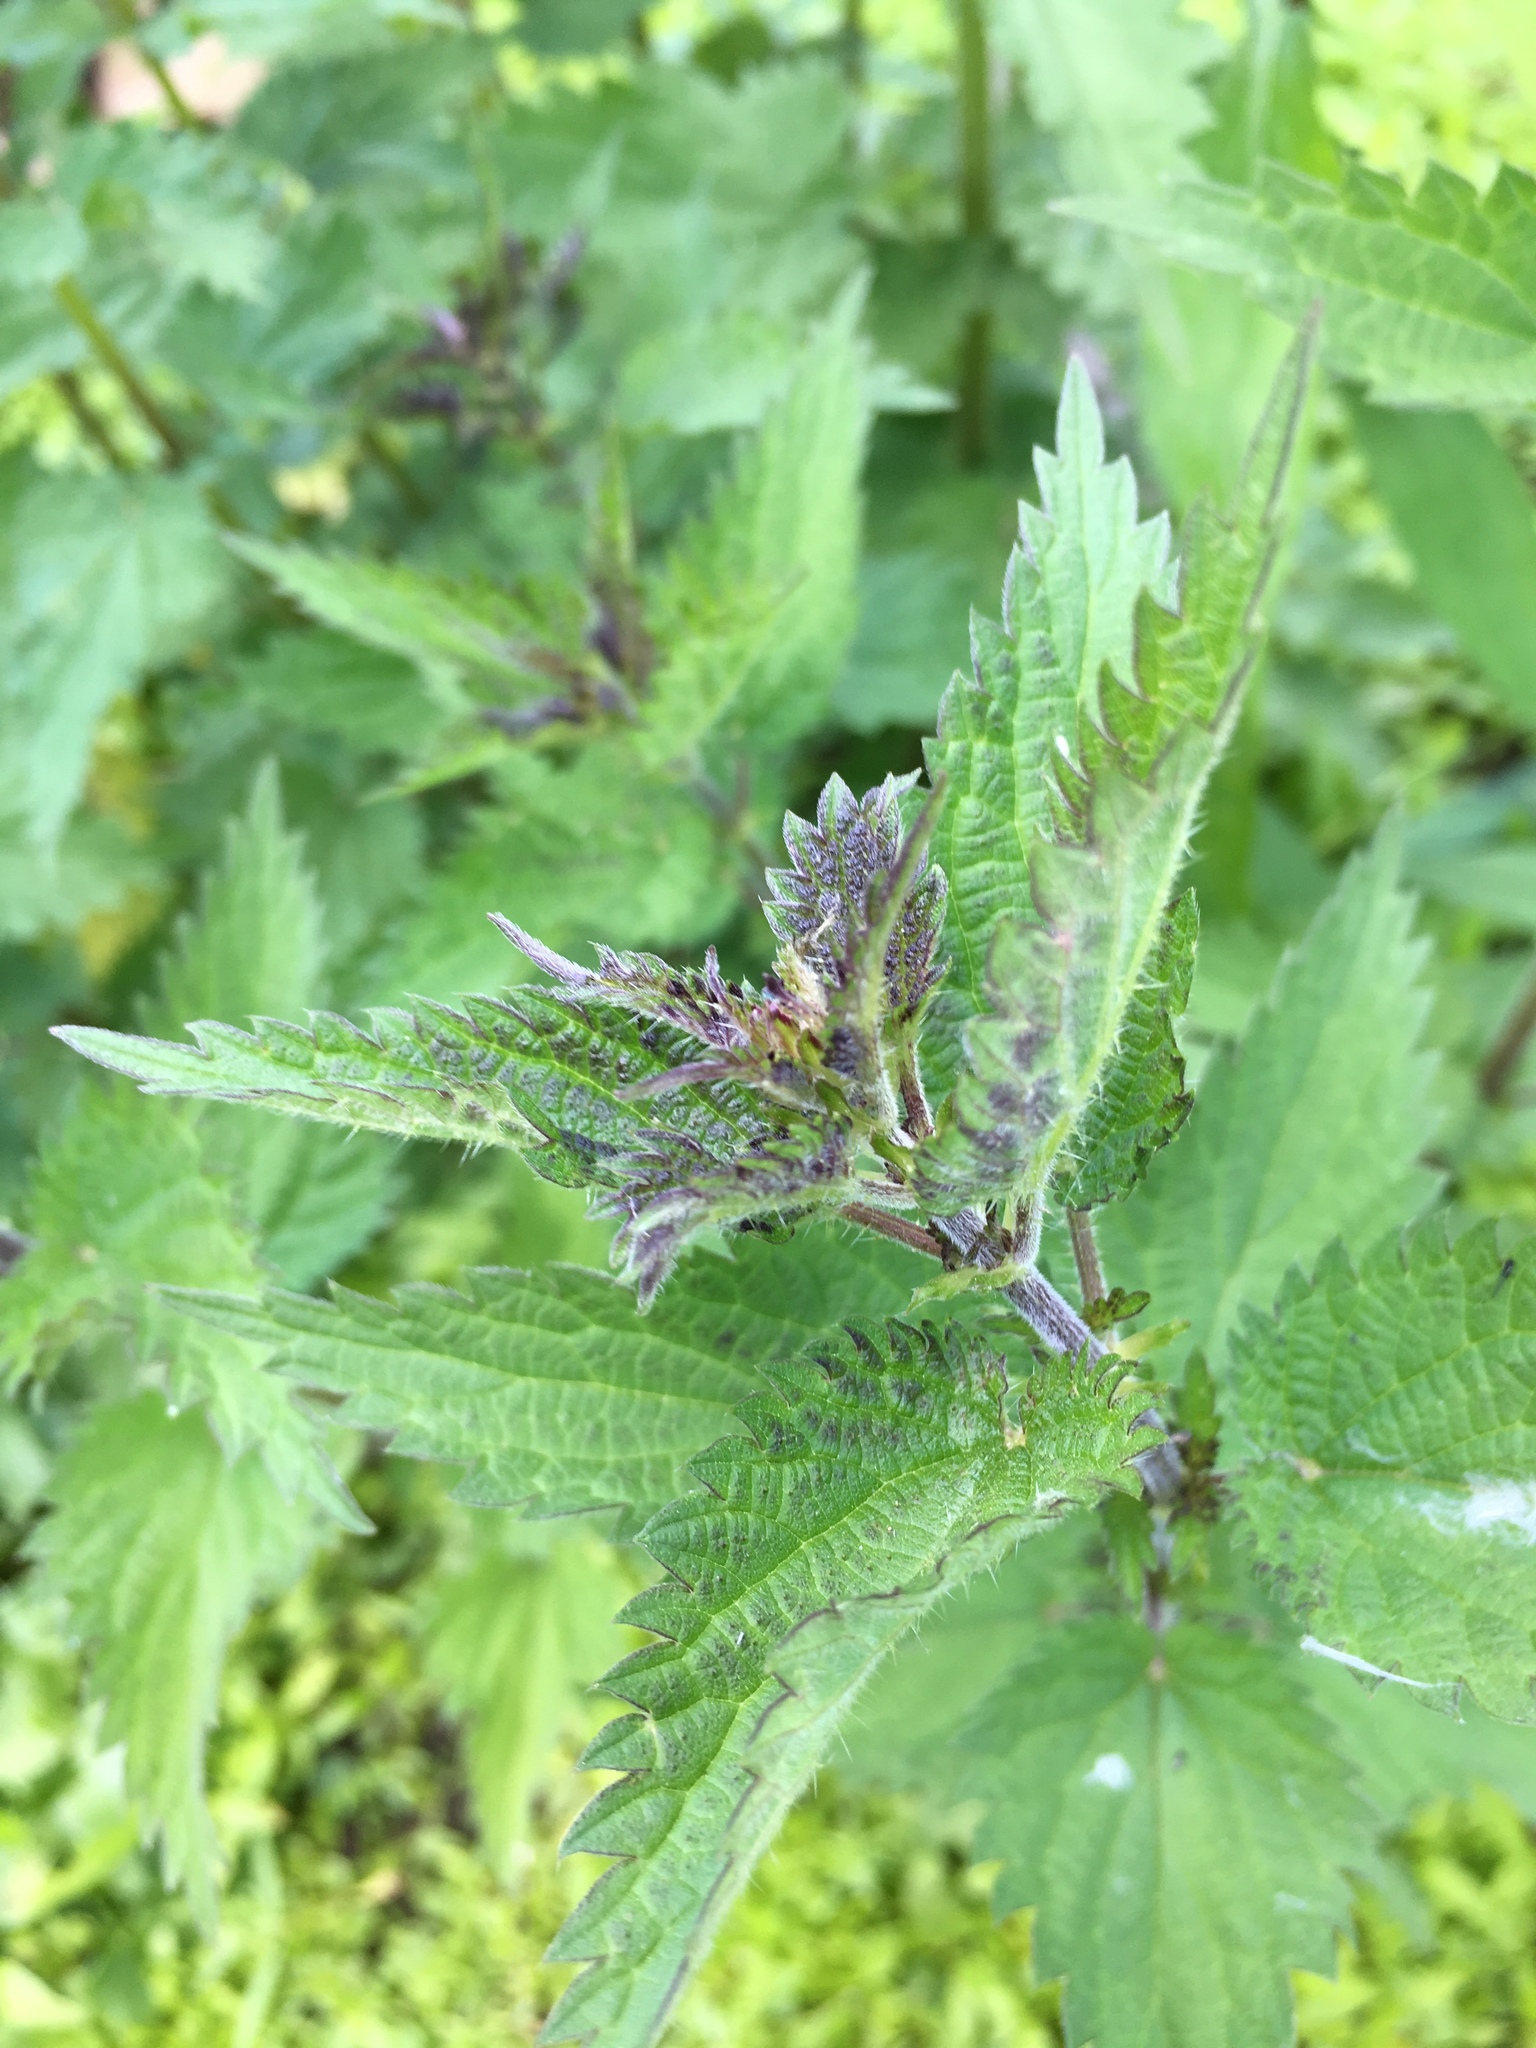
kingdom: Plantae
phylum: Tracheophyta
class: Magnoliopsida
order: Rosales
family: Urticaceae
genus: Urtica
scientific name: Urtica dioica
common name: Common nettle
